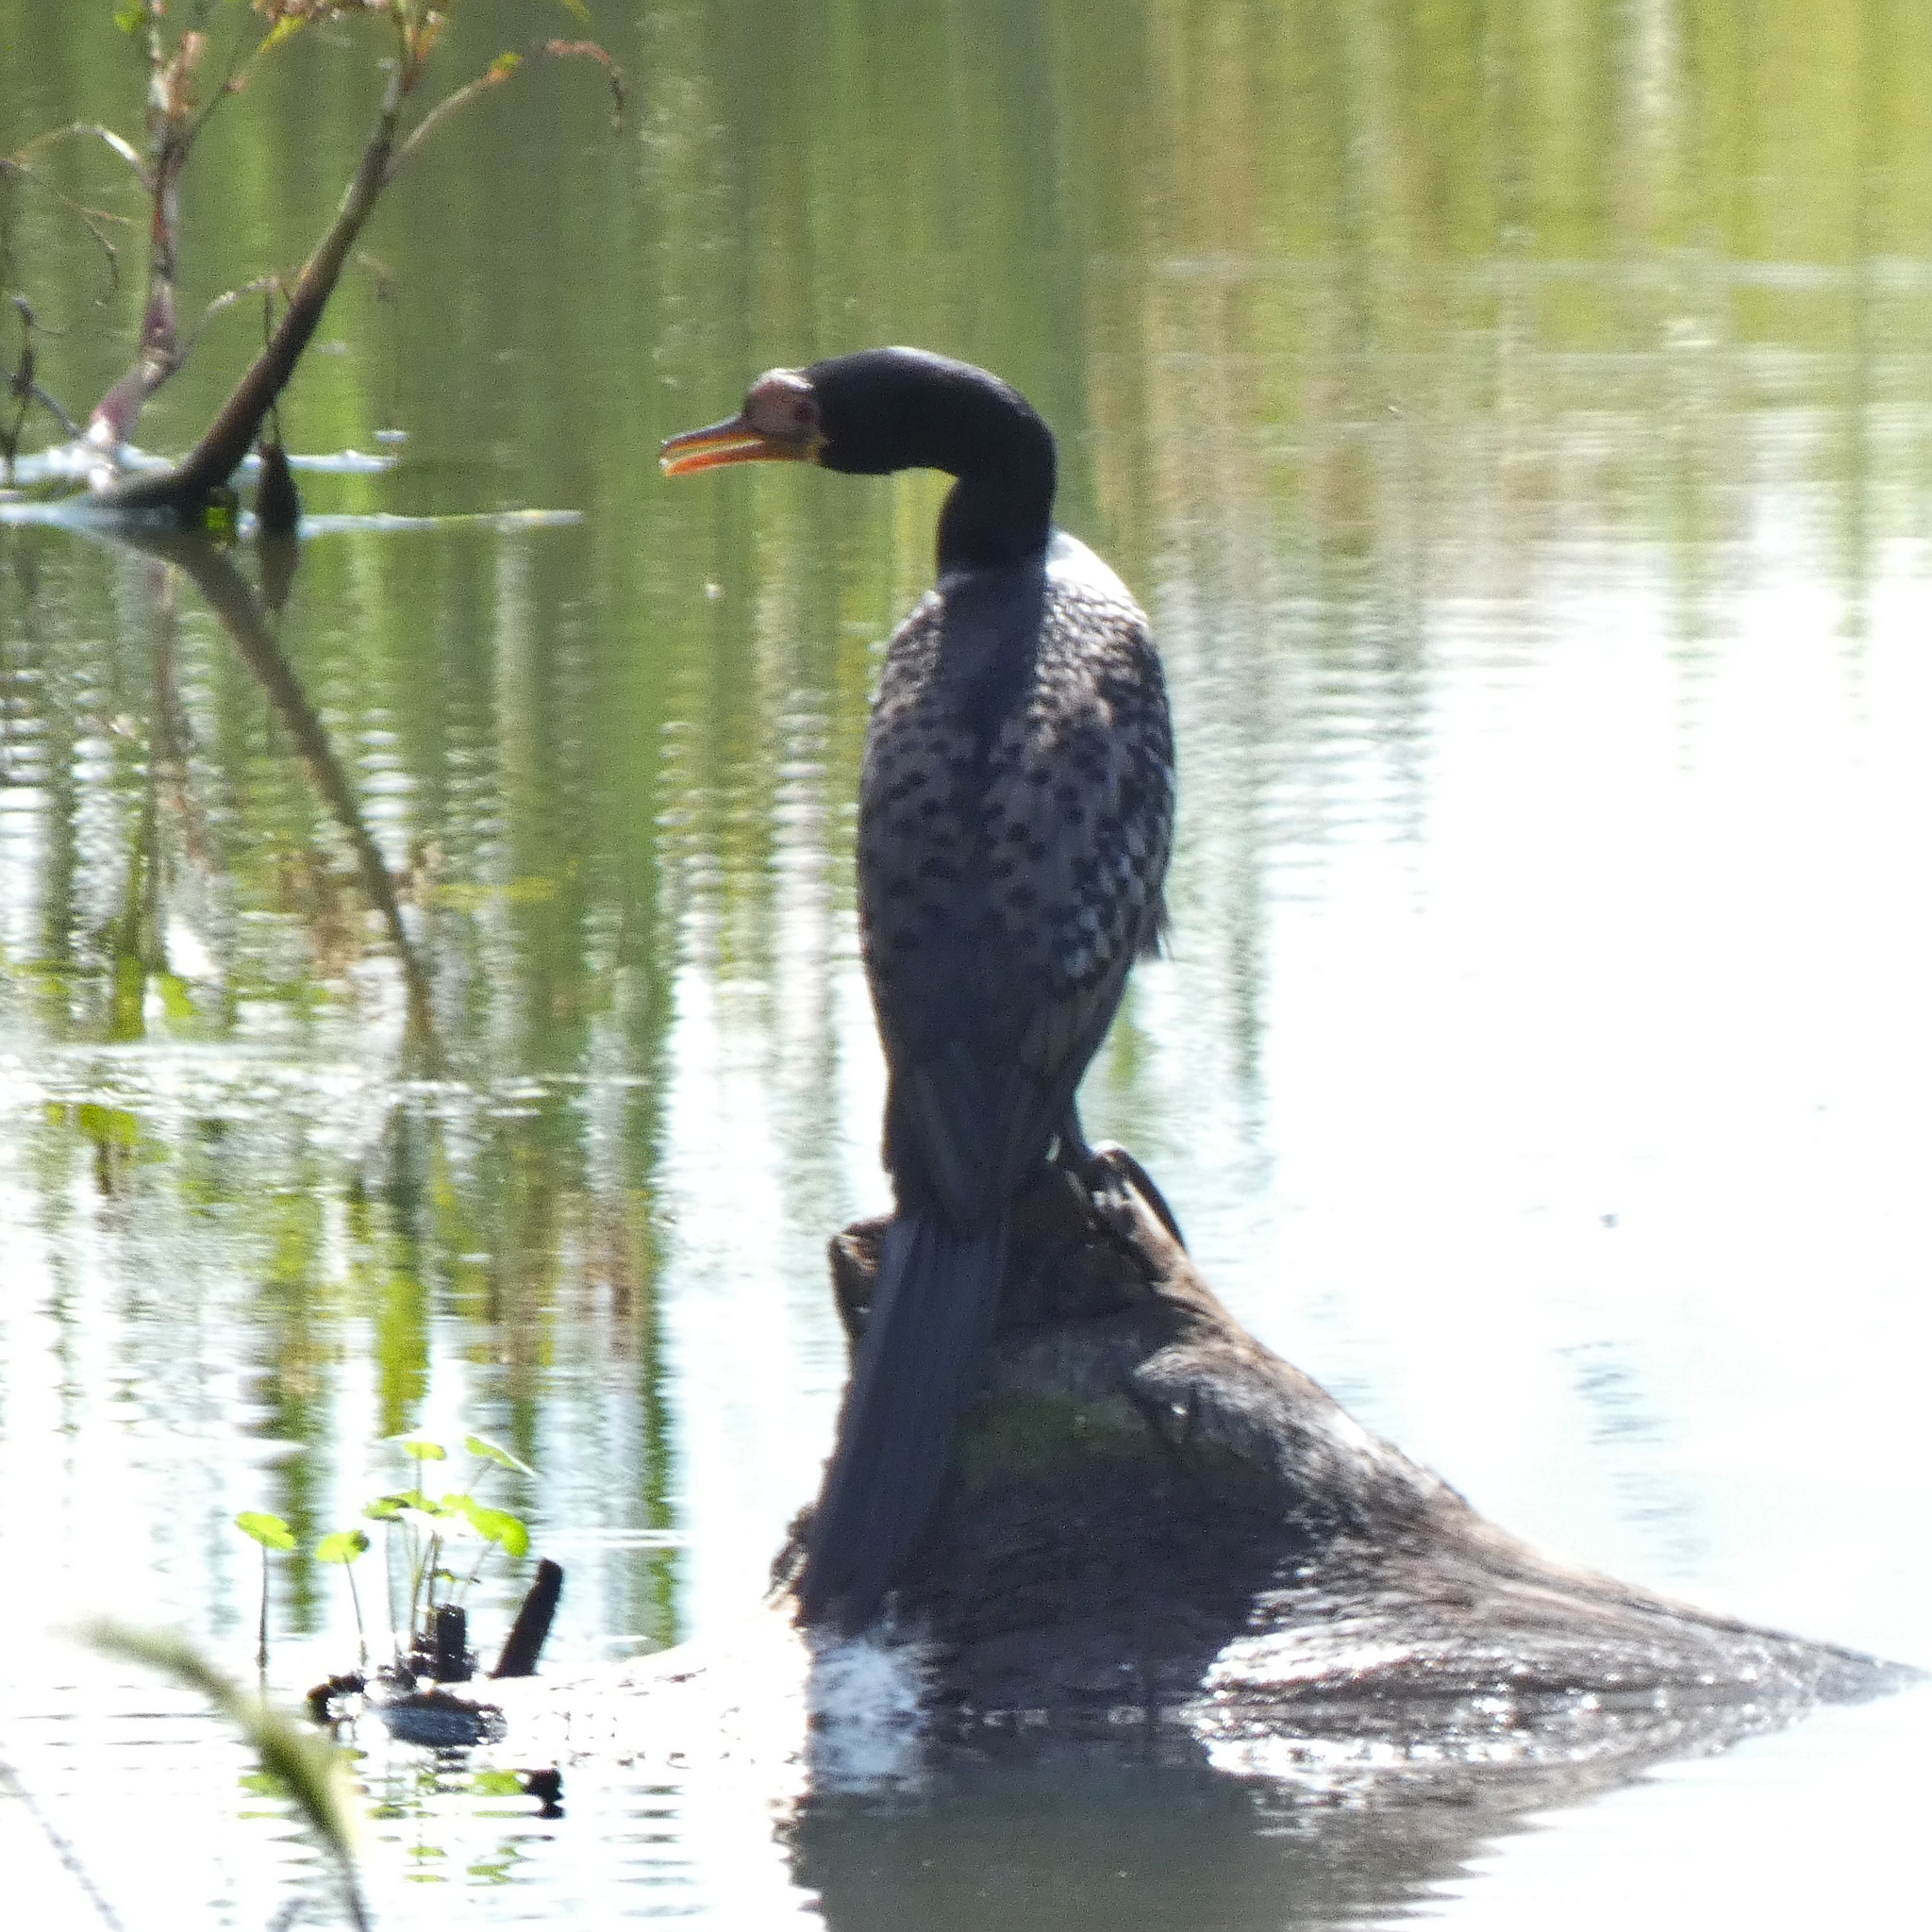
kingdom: Animalia
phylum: Chordata
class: Aves
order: Suliformes
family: Phalacrocoracidae
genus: Microcarbo
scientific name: Microcarbo africanus
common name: Long-tailed cormorant
